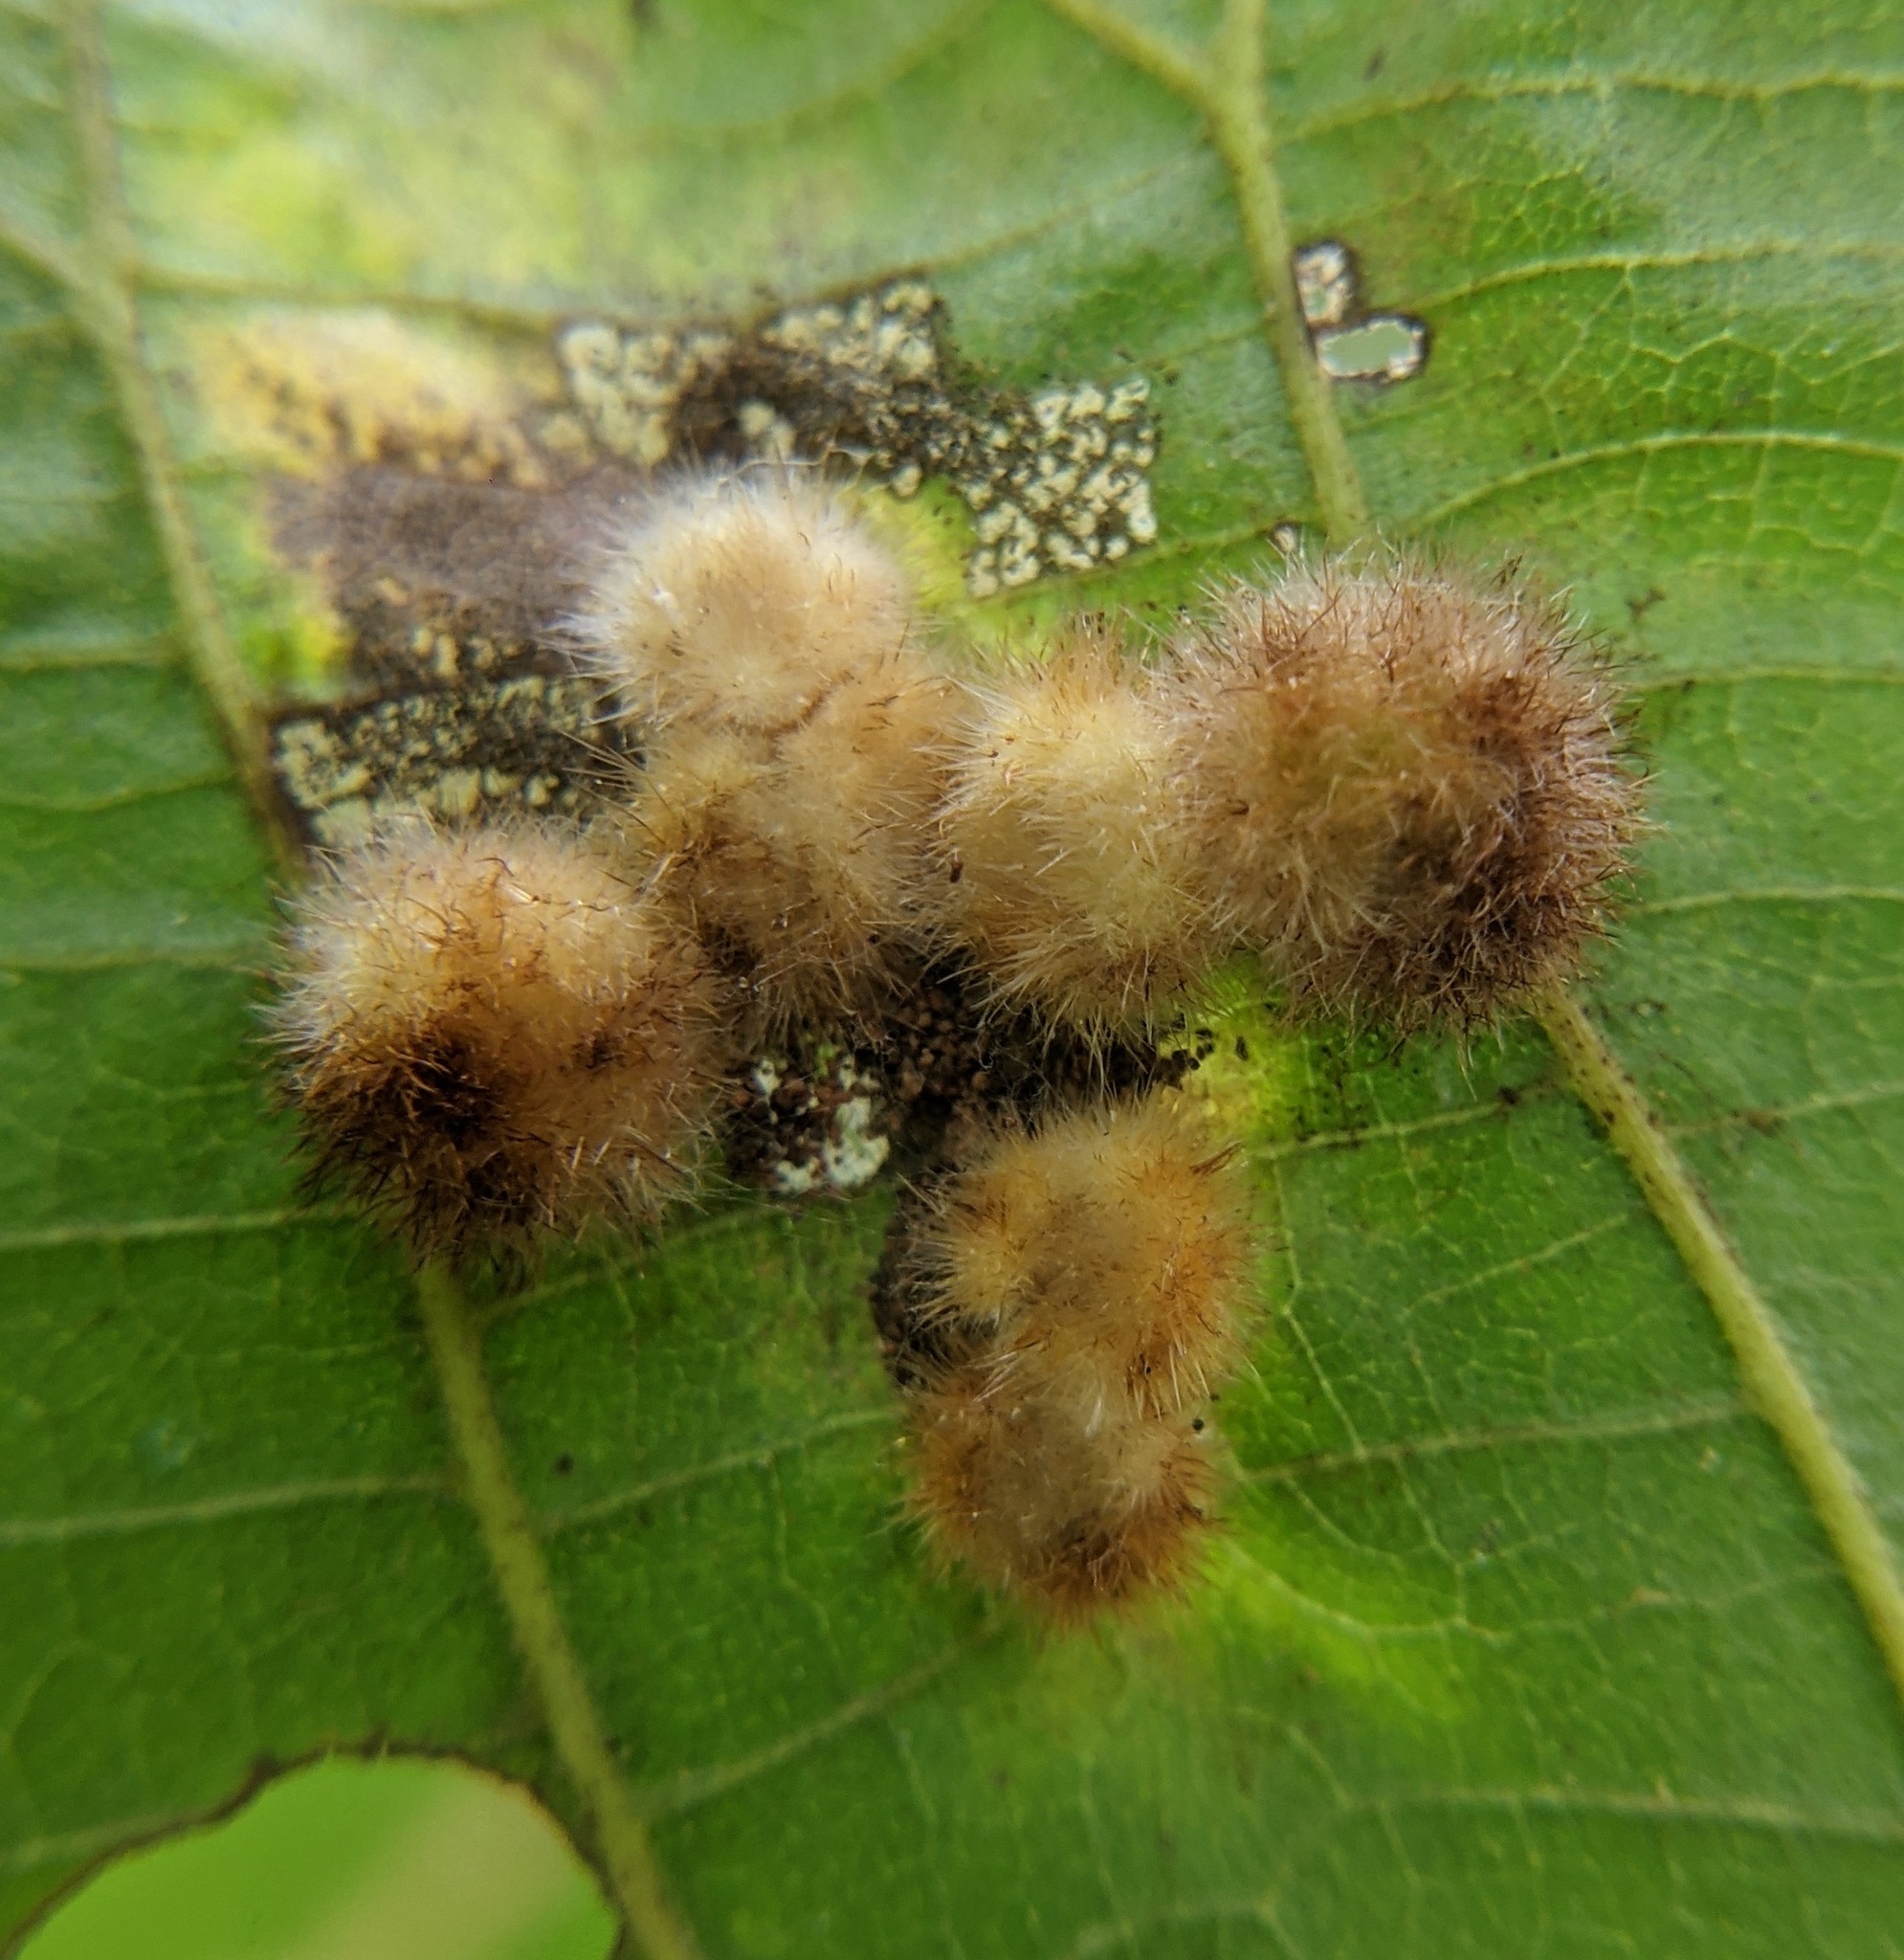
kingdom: Animalia
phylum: Arthropoda
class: Insecta
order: Diptera
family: Cecidomyiidae
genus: Caryomyia
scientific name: Caryomyia aggregata
